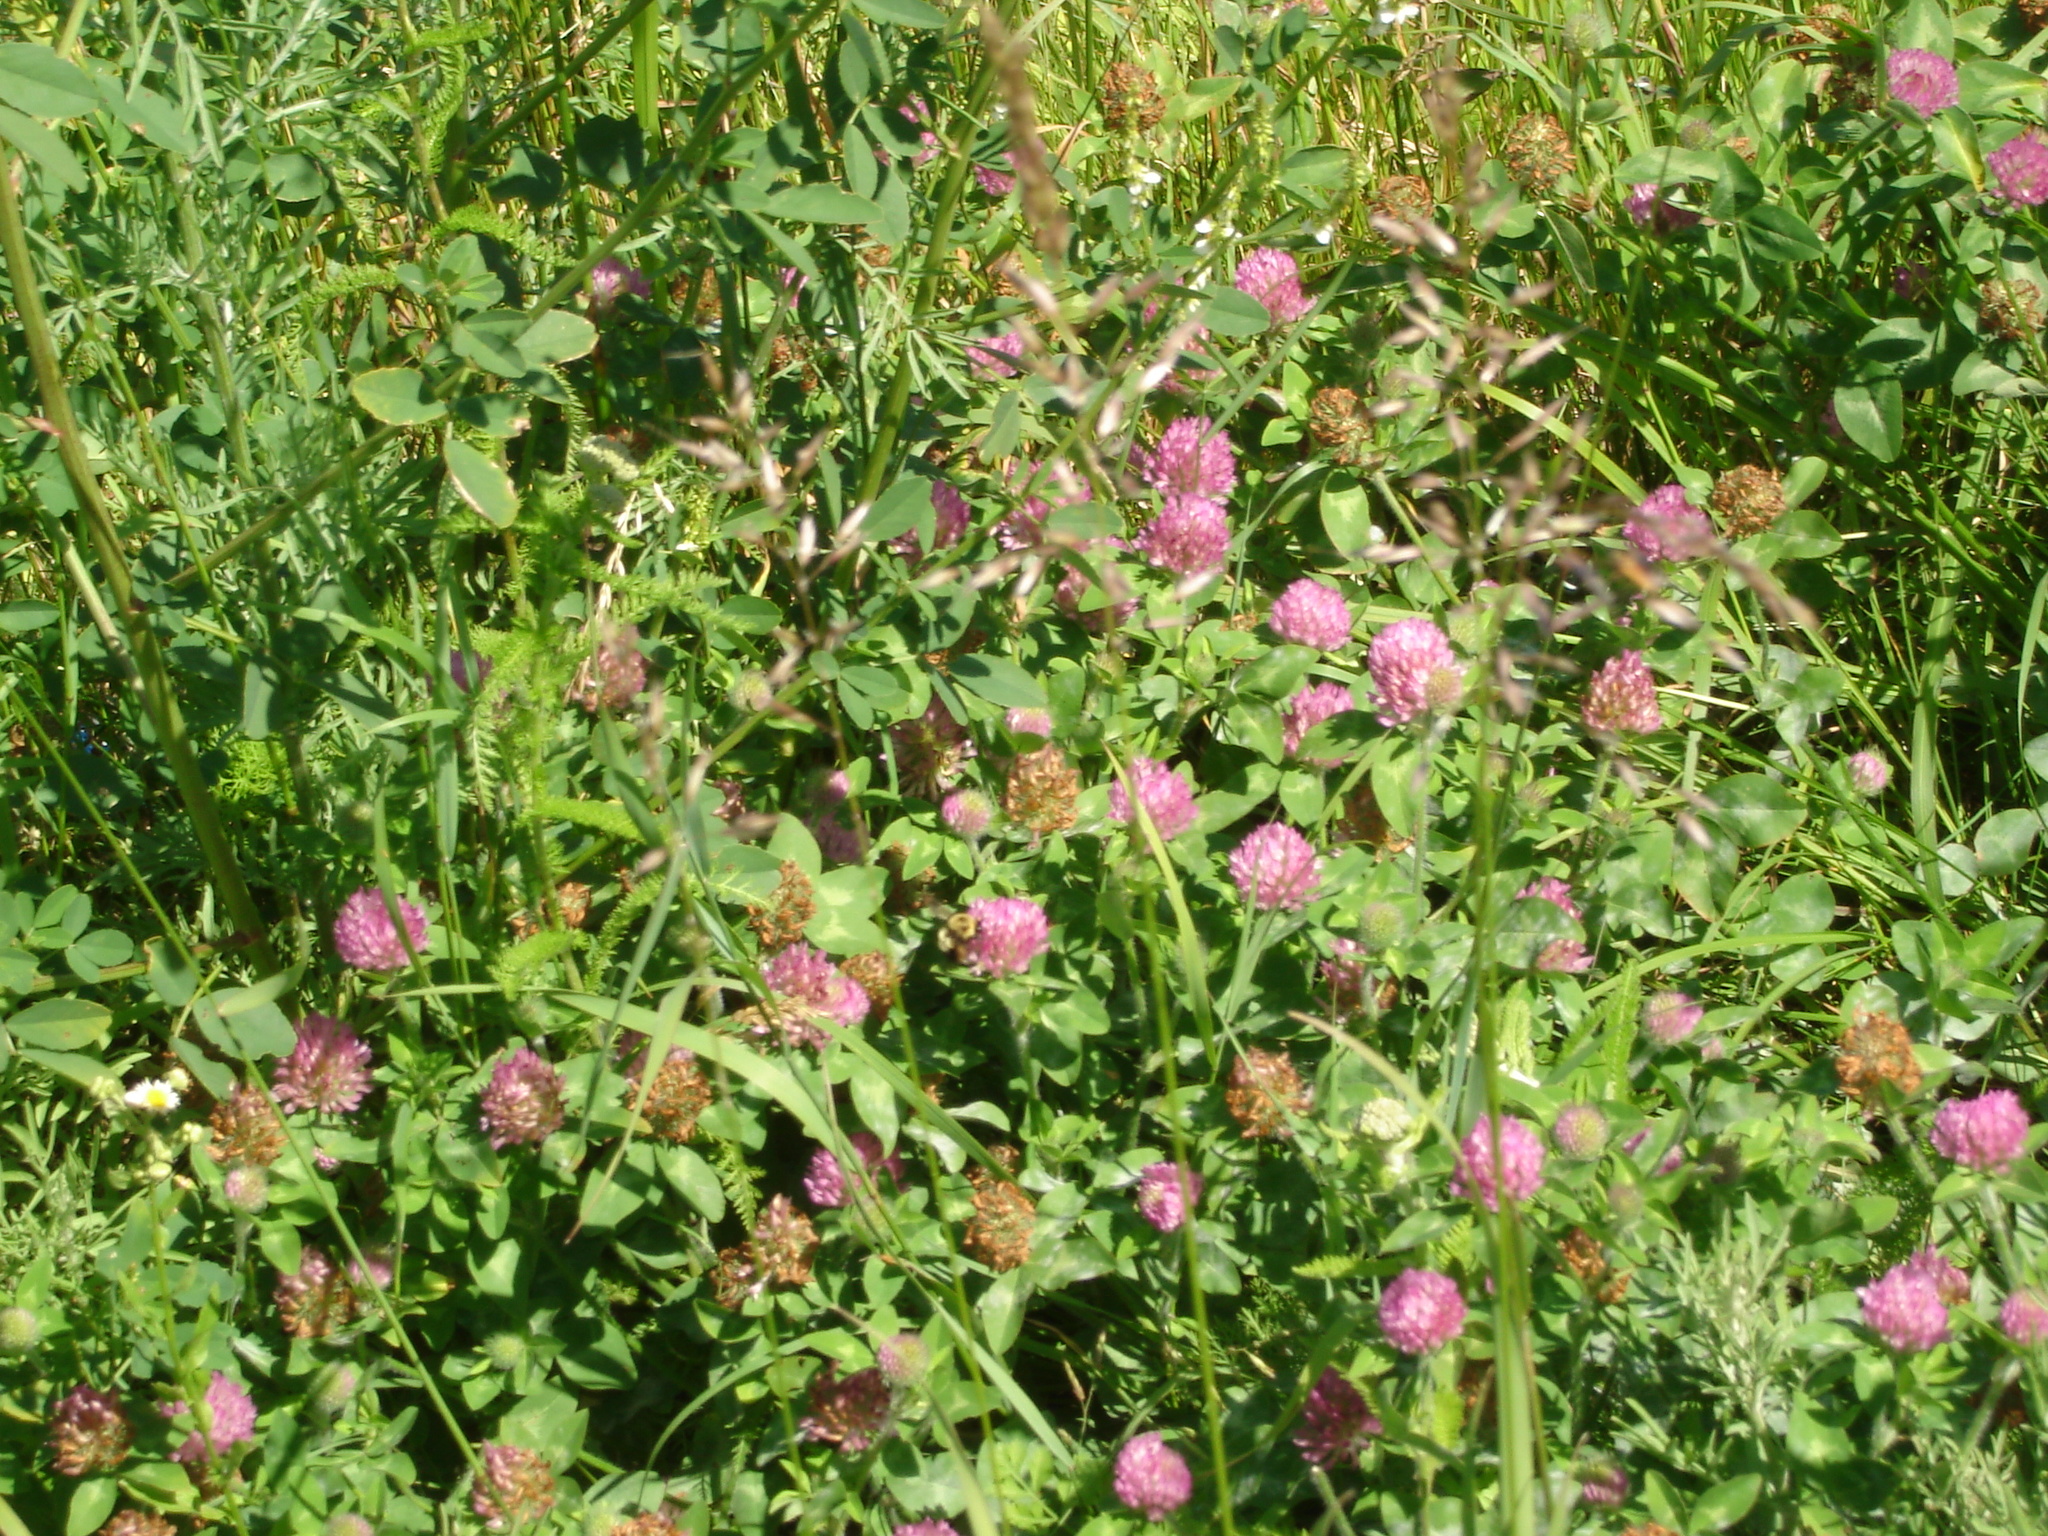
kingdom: Plantae
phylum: Tracheophyta
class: Magnoliopsida
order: Fabales
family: Fabaceae
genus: Trifolium
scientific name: Trifolium pratense
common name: Red clover
